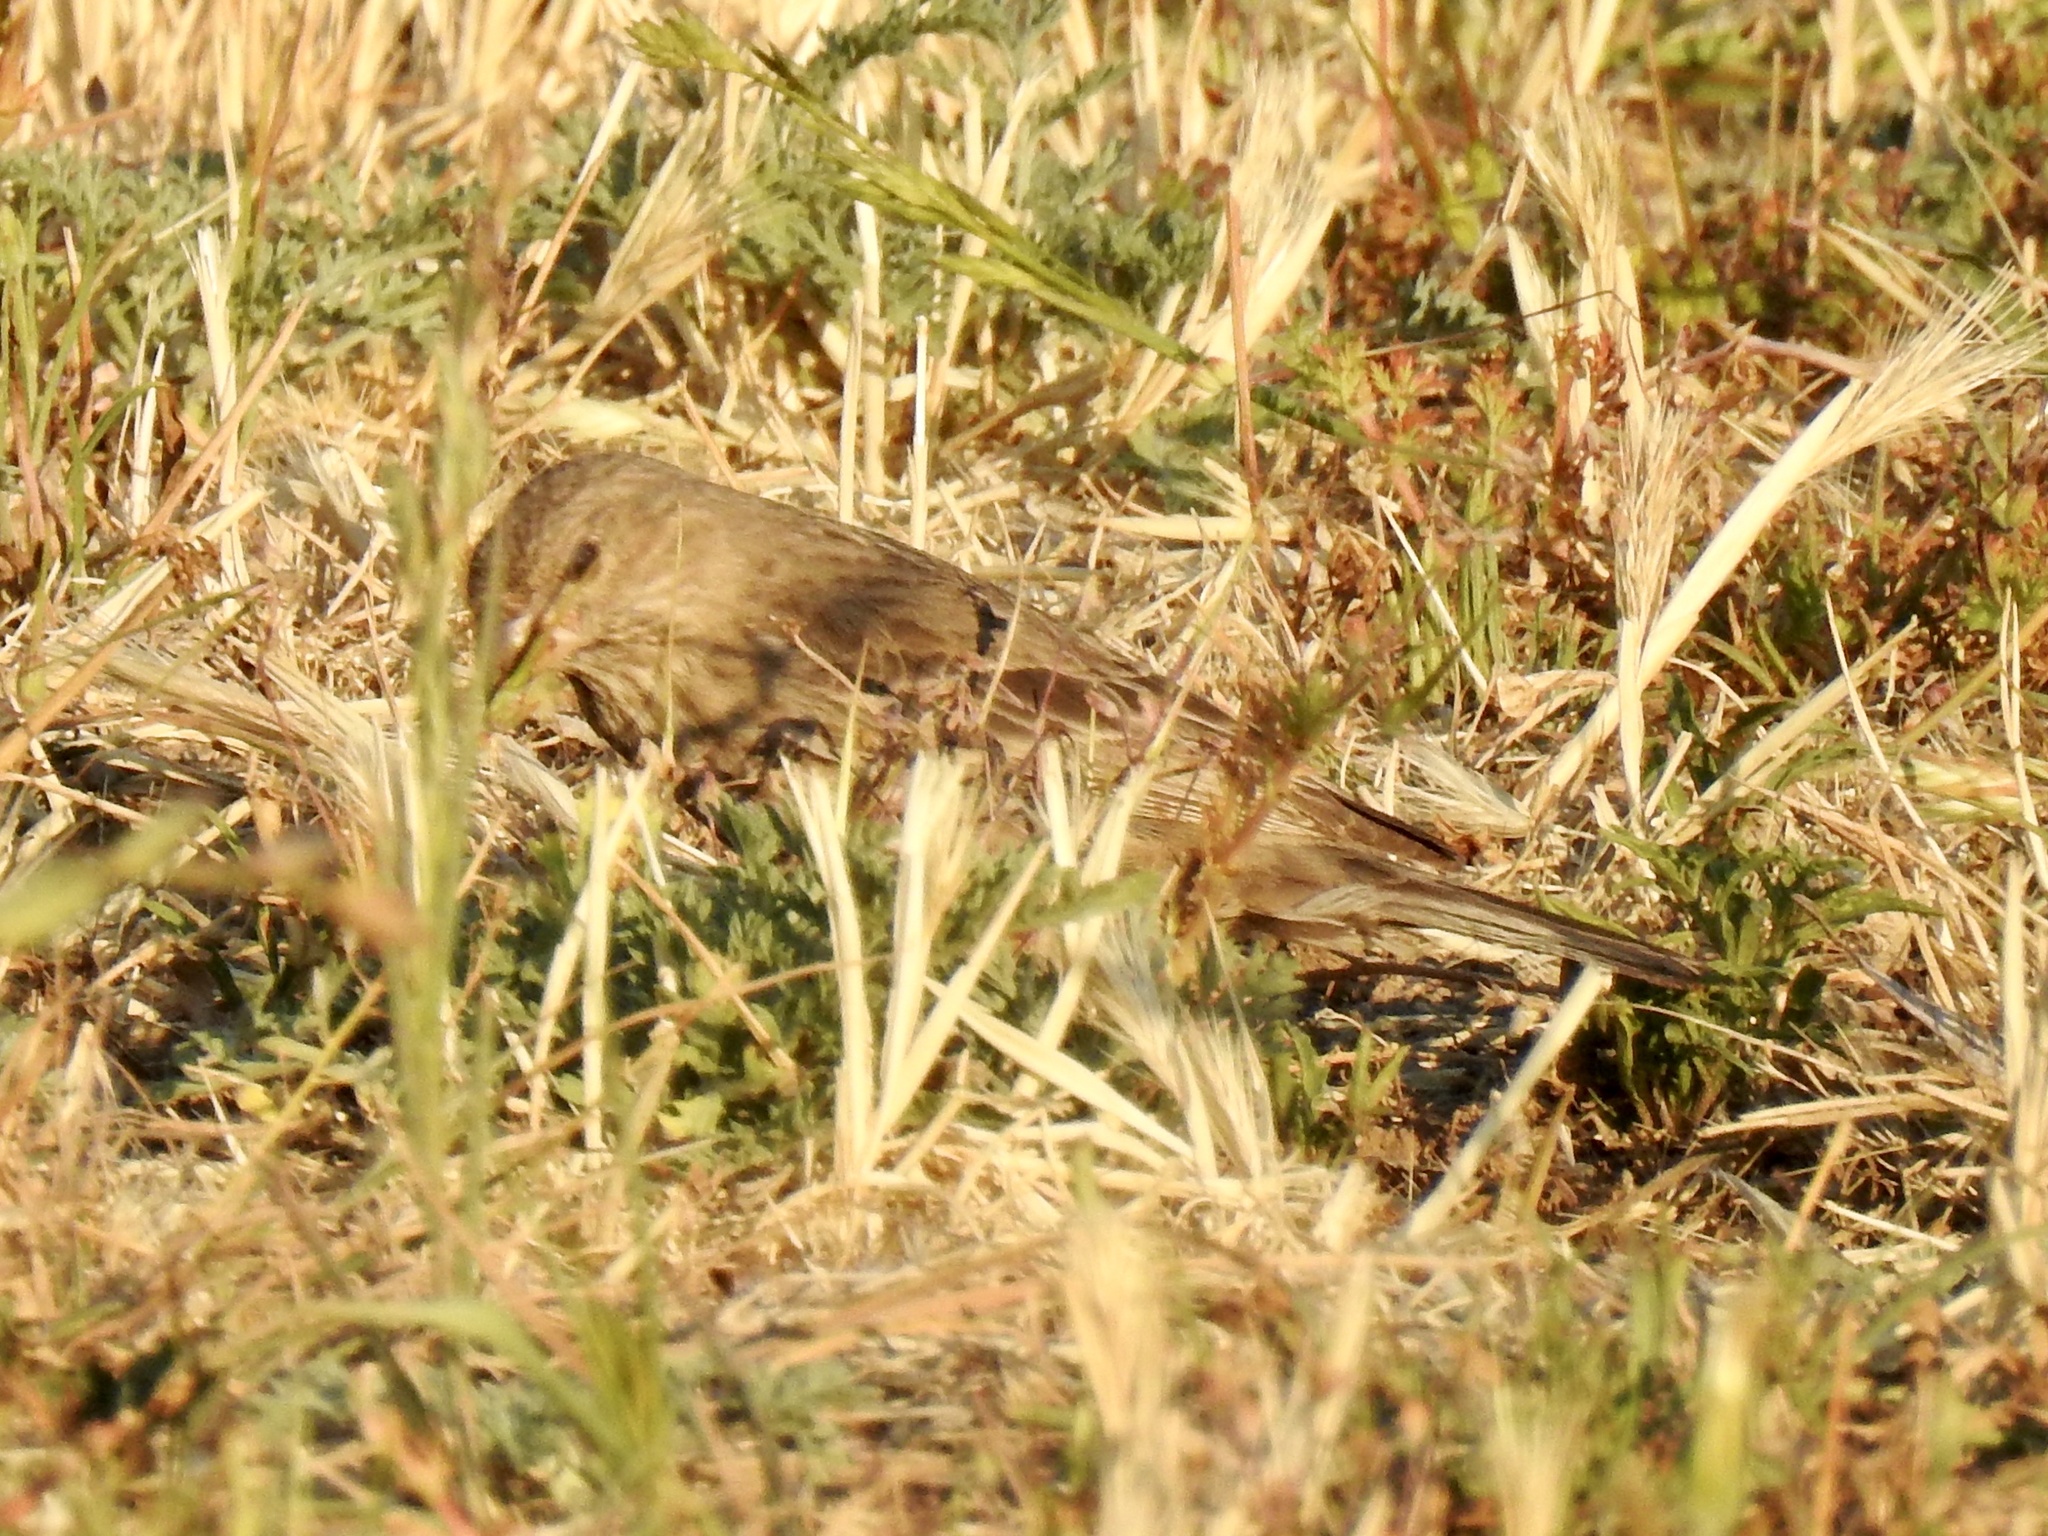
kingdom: Animalia
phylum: Chordata
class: Aves
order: Passeriformes
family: Fringillidae
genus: Haemorhous
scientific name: Haemorhous mexicanus
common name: House finch
